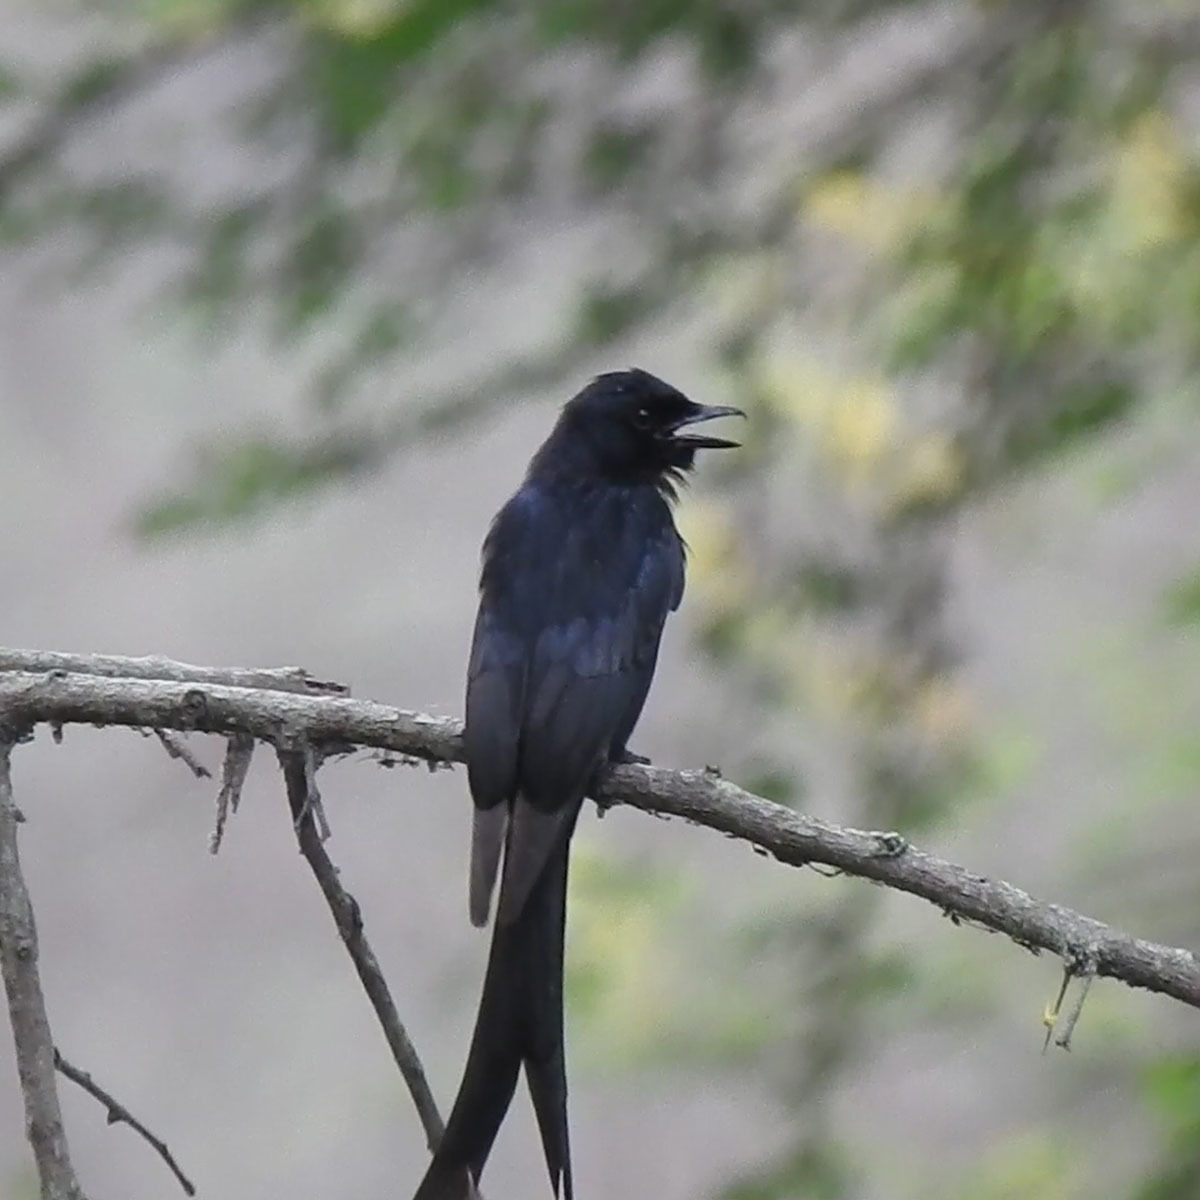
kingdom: Animalia
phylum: Chordata
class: Aves
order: Passeriformes
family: Dicruridae
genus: Dicrurus
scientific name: Dicrurus macrocercus
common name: Black drongo
